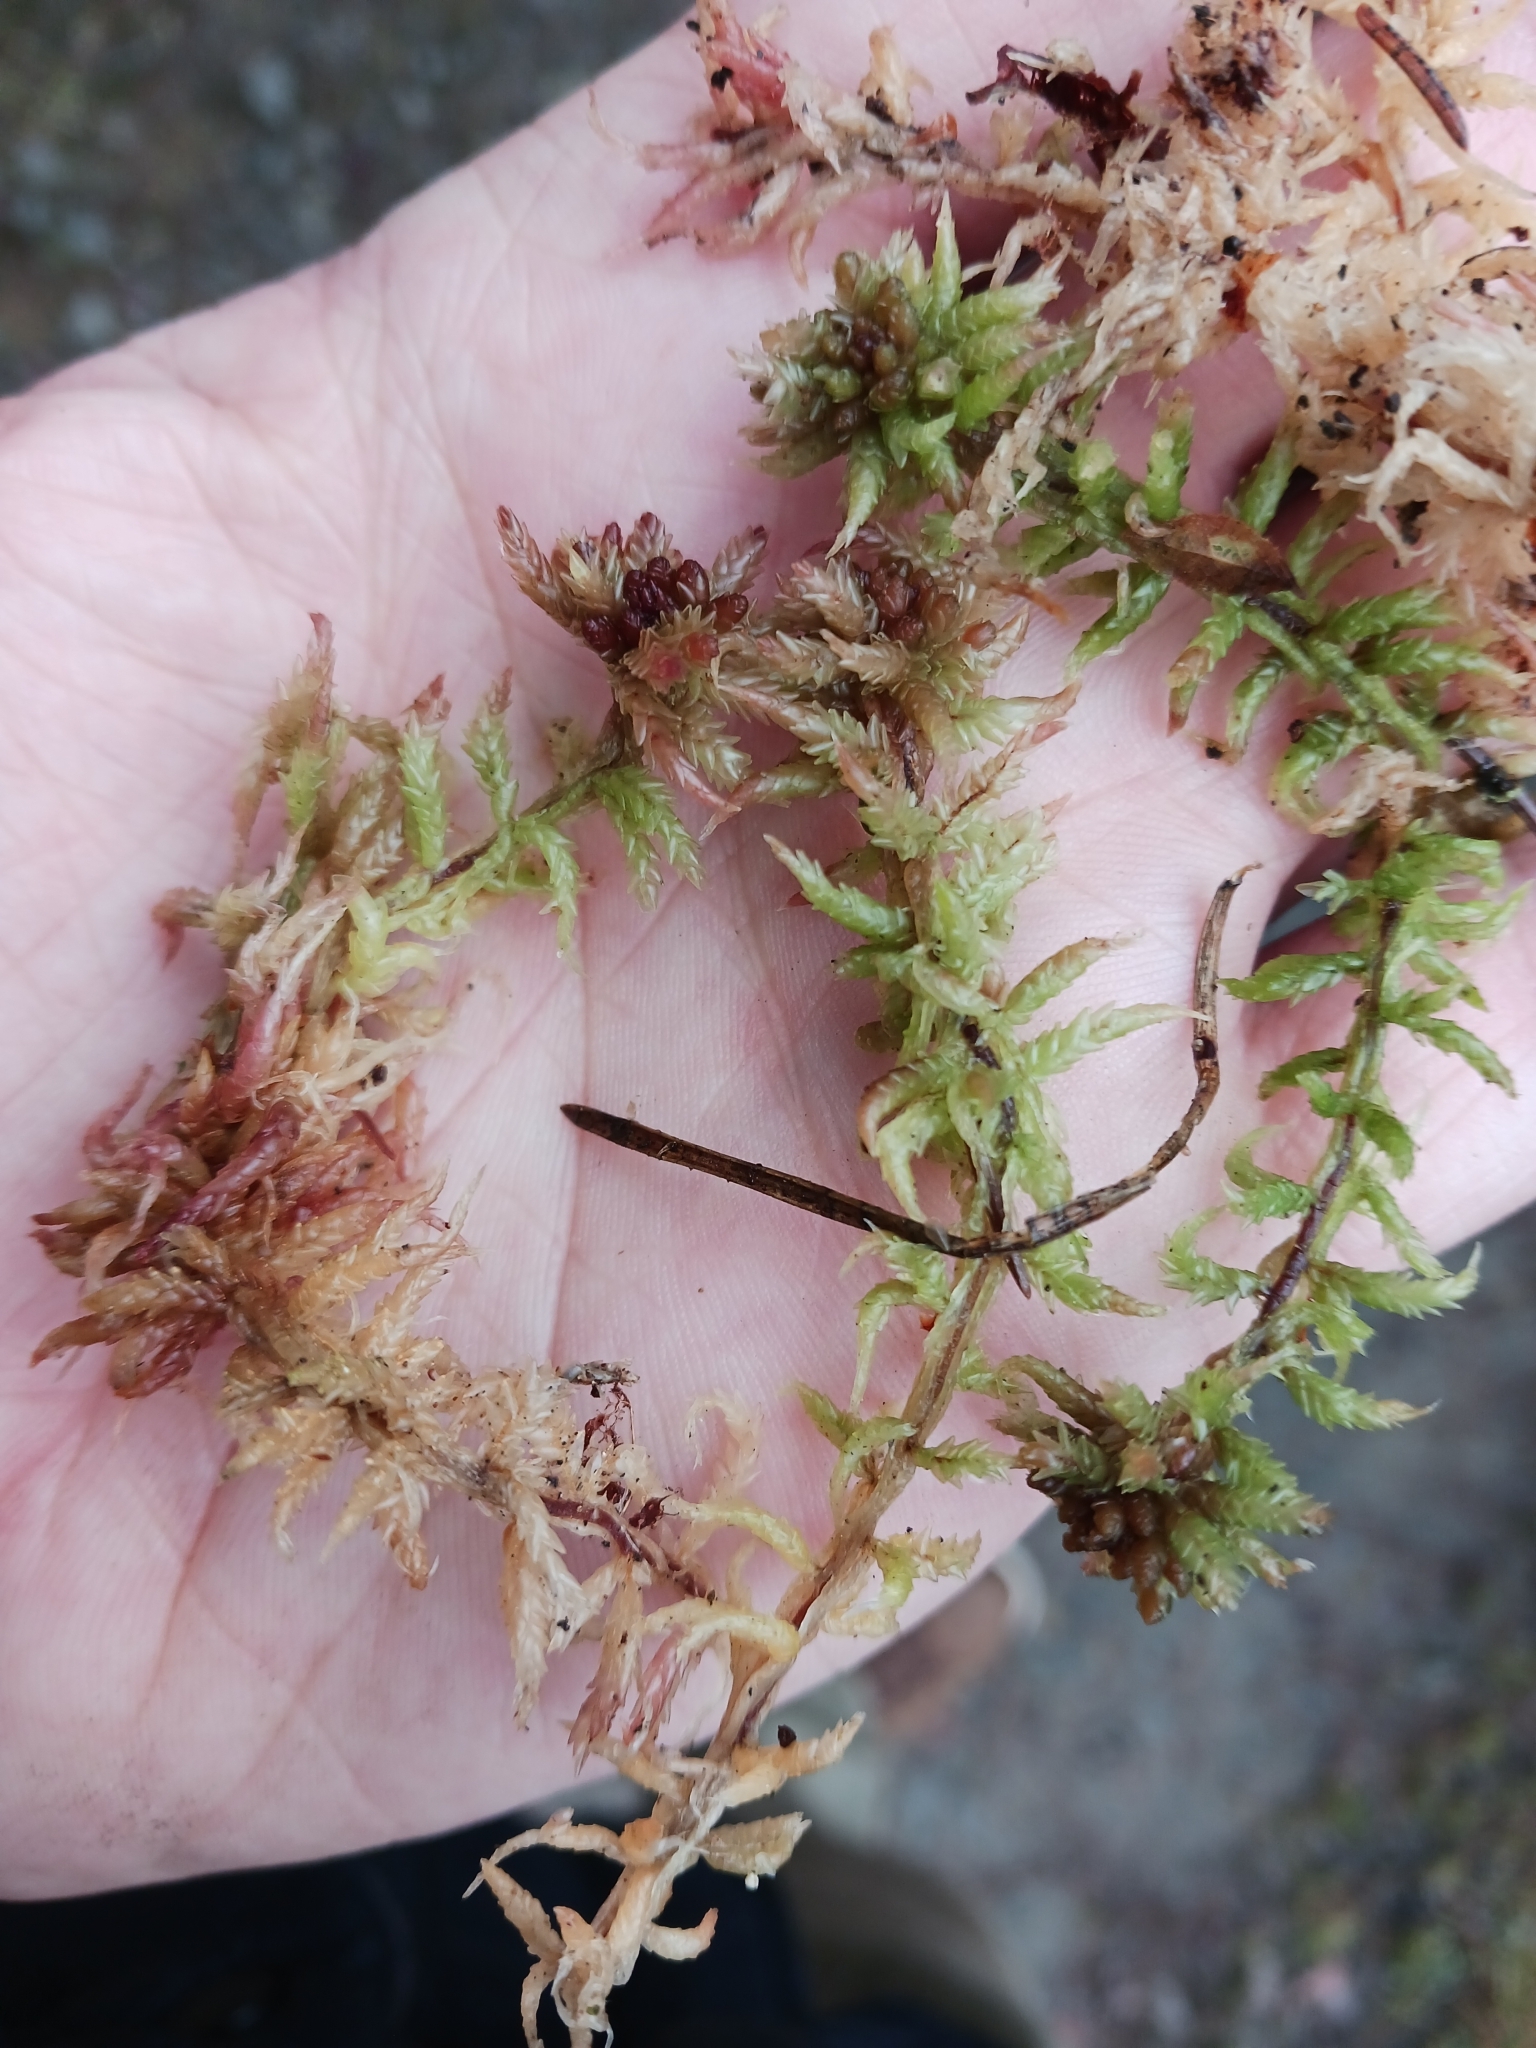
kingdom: Plantae
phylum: Bryophyta
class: Sphagnopsida
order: Sphagnales
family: Sphagnaceae
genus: Sphagnum
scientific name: Sphagnum divinum
